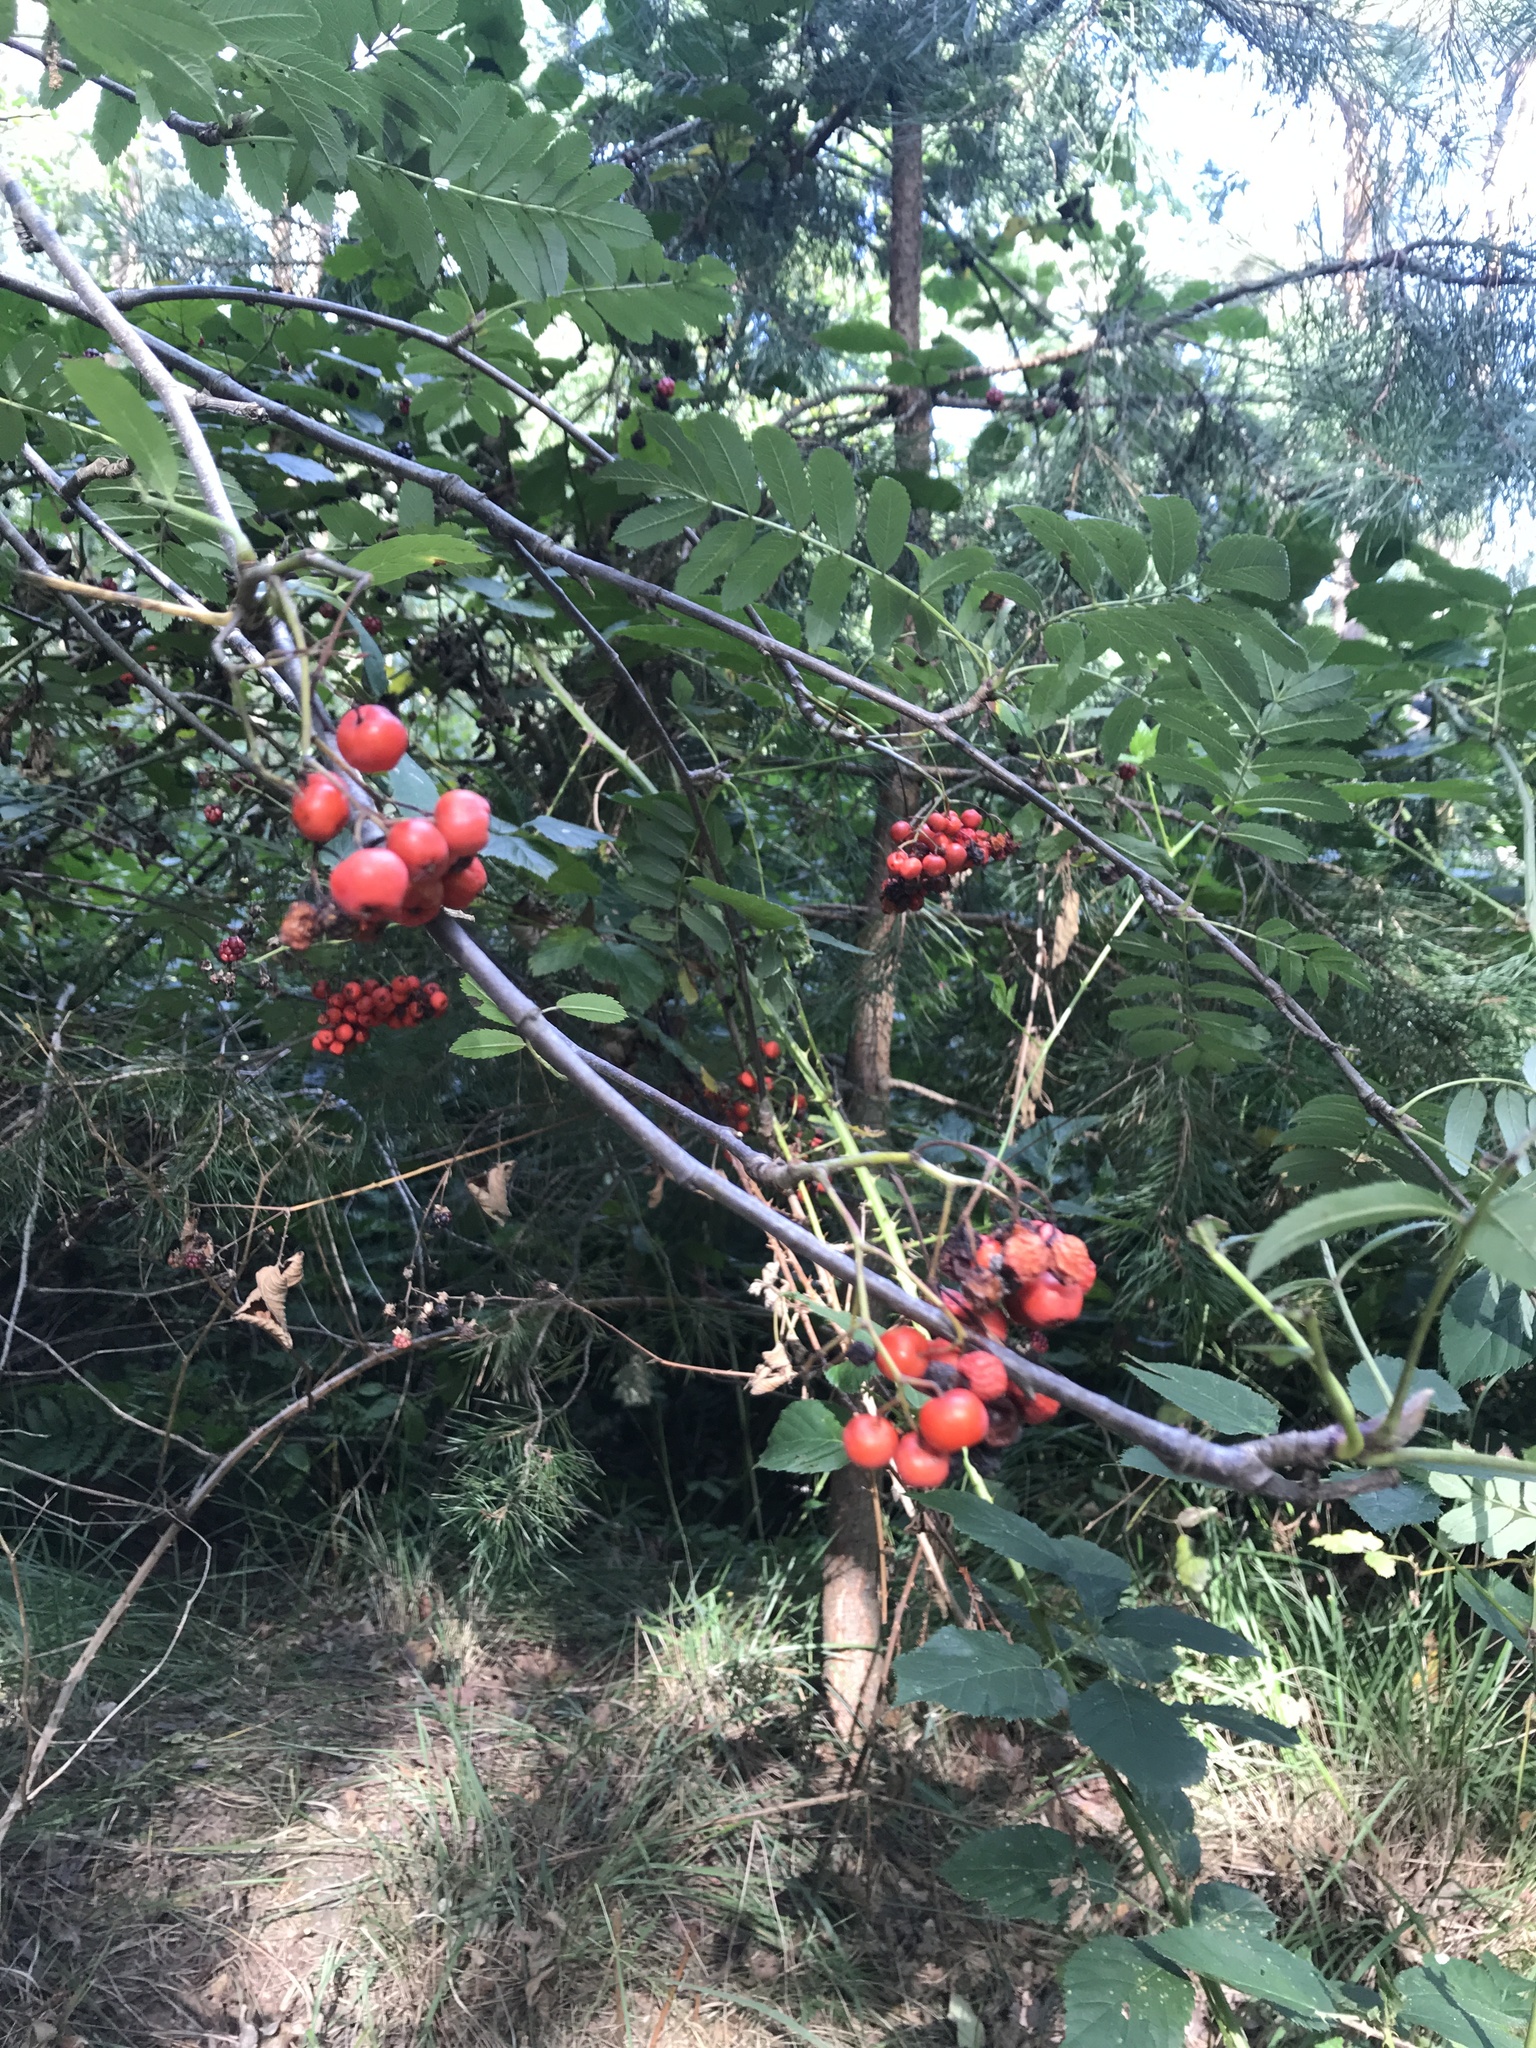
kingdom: Plantae
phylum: Tracheophyta
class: Magnoliopsida
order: Rosales
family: Rosaceae
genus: Sorbus
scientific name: Sorbus aucuparia
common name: Rowan
